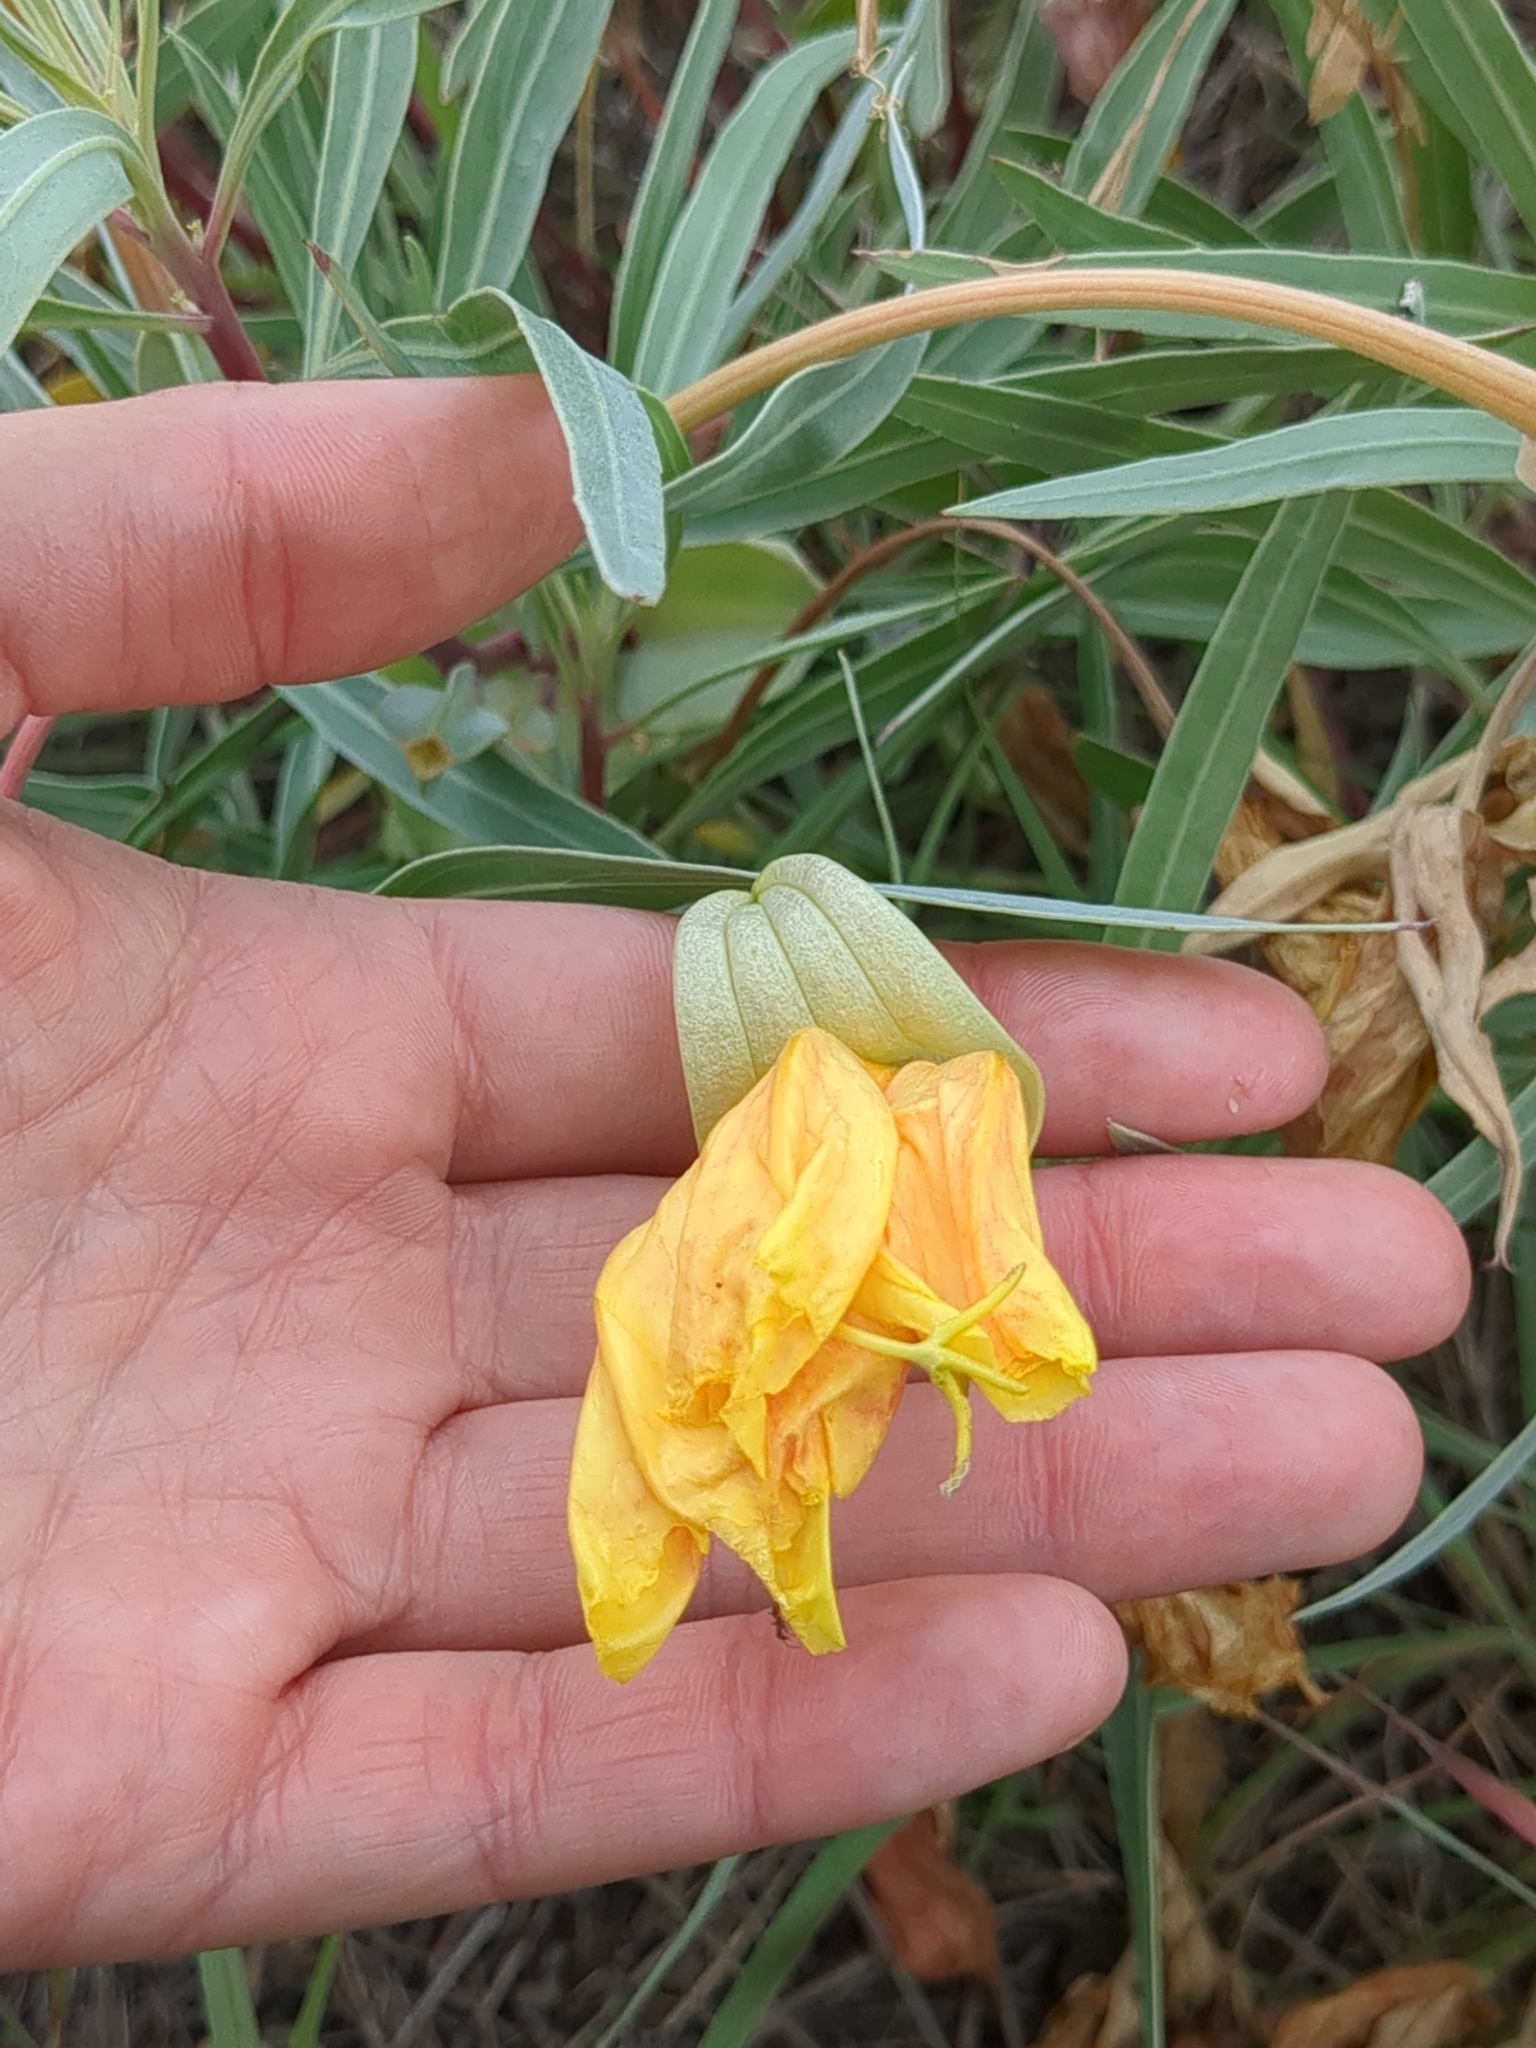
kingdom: Plantae
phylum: Tracheophyta
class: Magnoliopsida
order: Myrtales
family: Onagraceae
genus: Oenothera
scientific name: Oenothera macrocarpa
